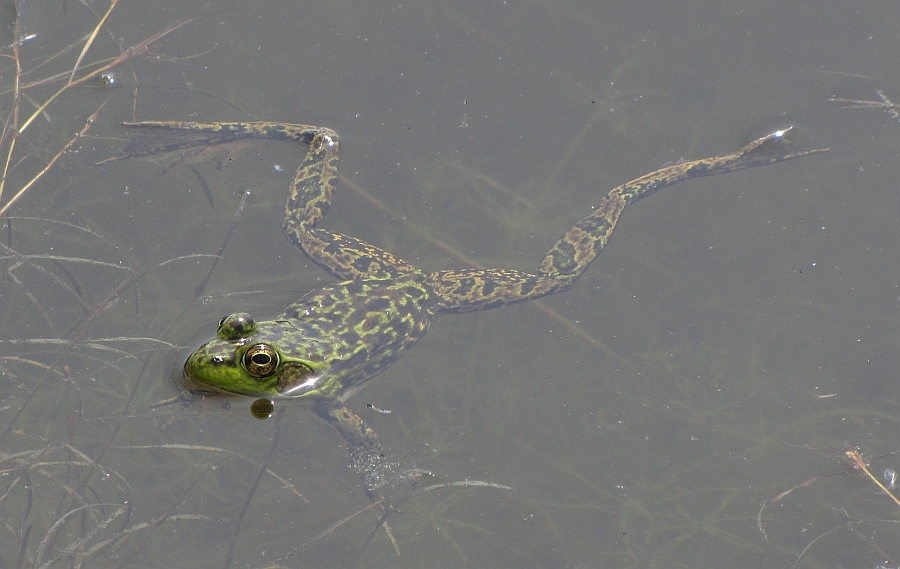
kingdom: Animalia
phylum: Chordata
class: Amphibia
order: Anura
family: Ranidae
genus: Lithobates
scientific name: Lithobates septentrionalis
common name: Mink frog
